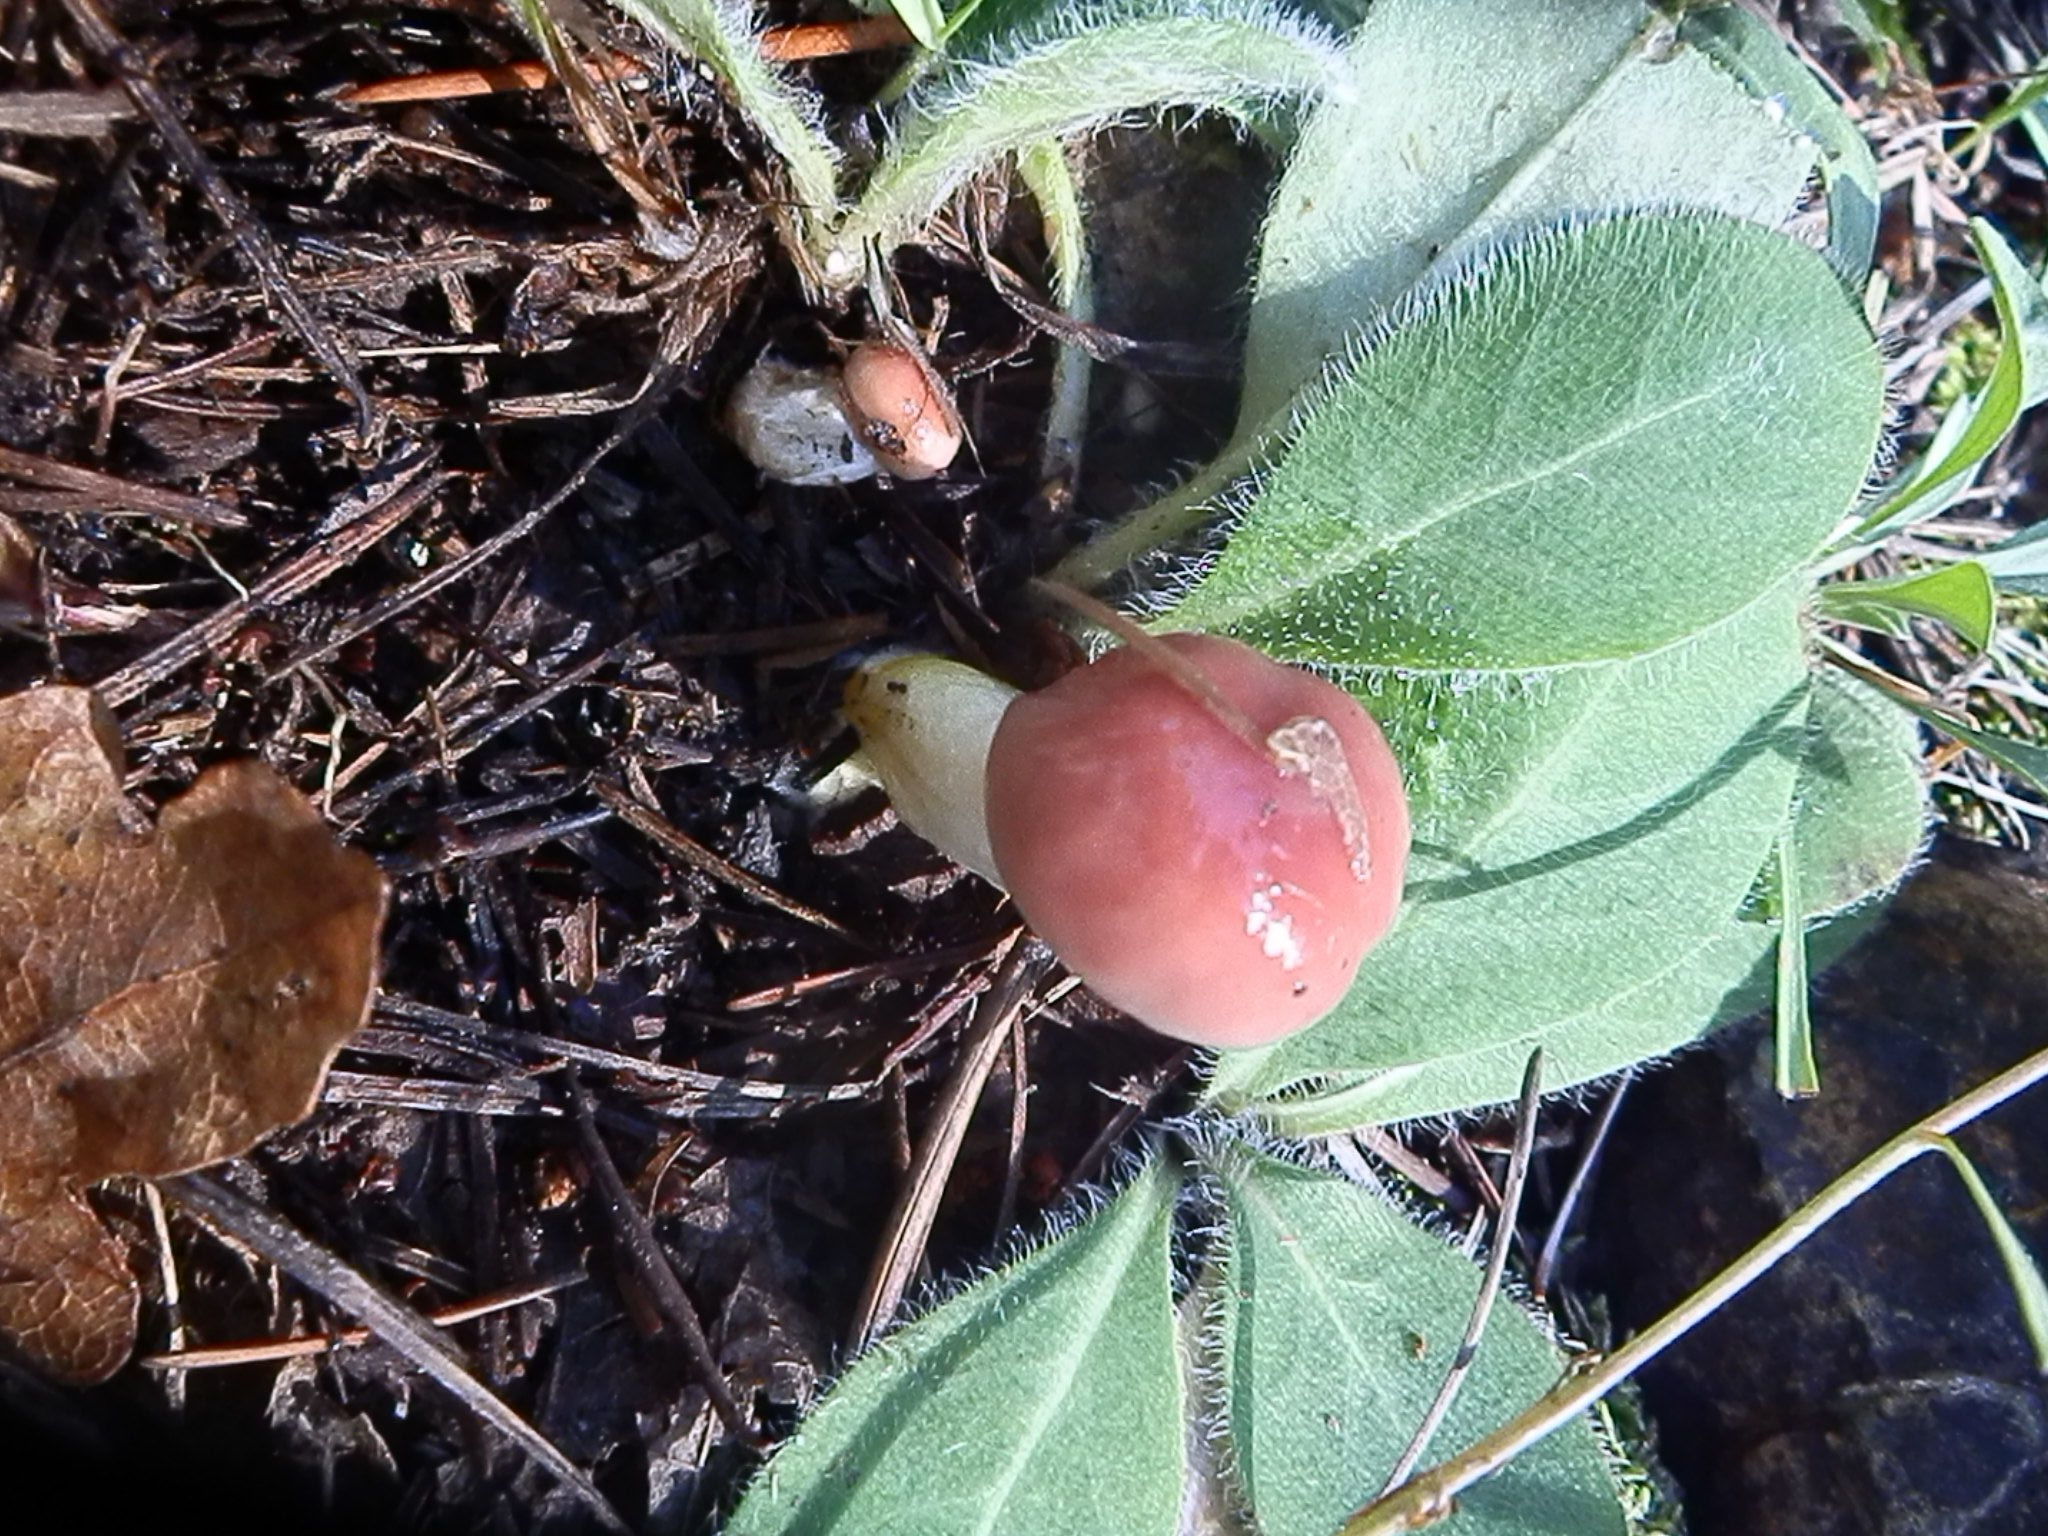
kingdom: Fungi
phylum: Basidiomycota
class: Agaricomycetes
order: Boletales
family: Gomphidiaceae
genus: Gomphidius
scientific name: Gomphidius subroseus
